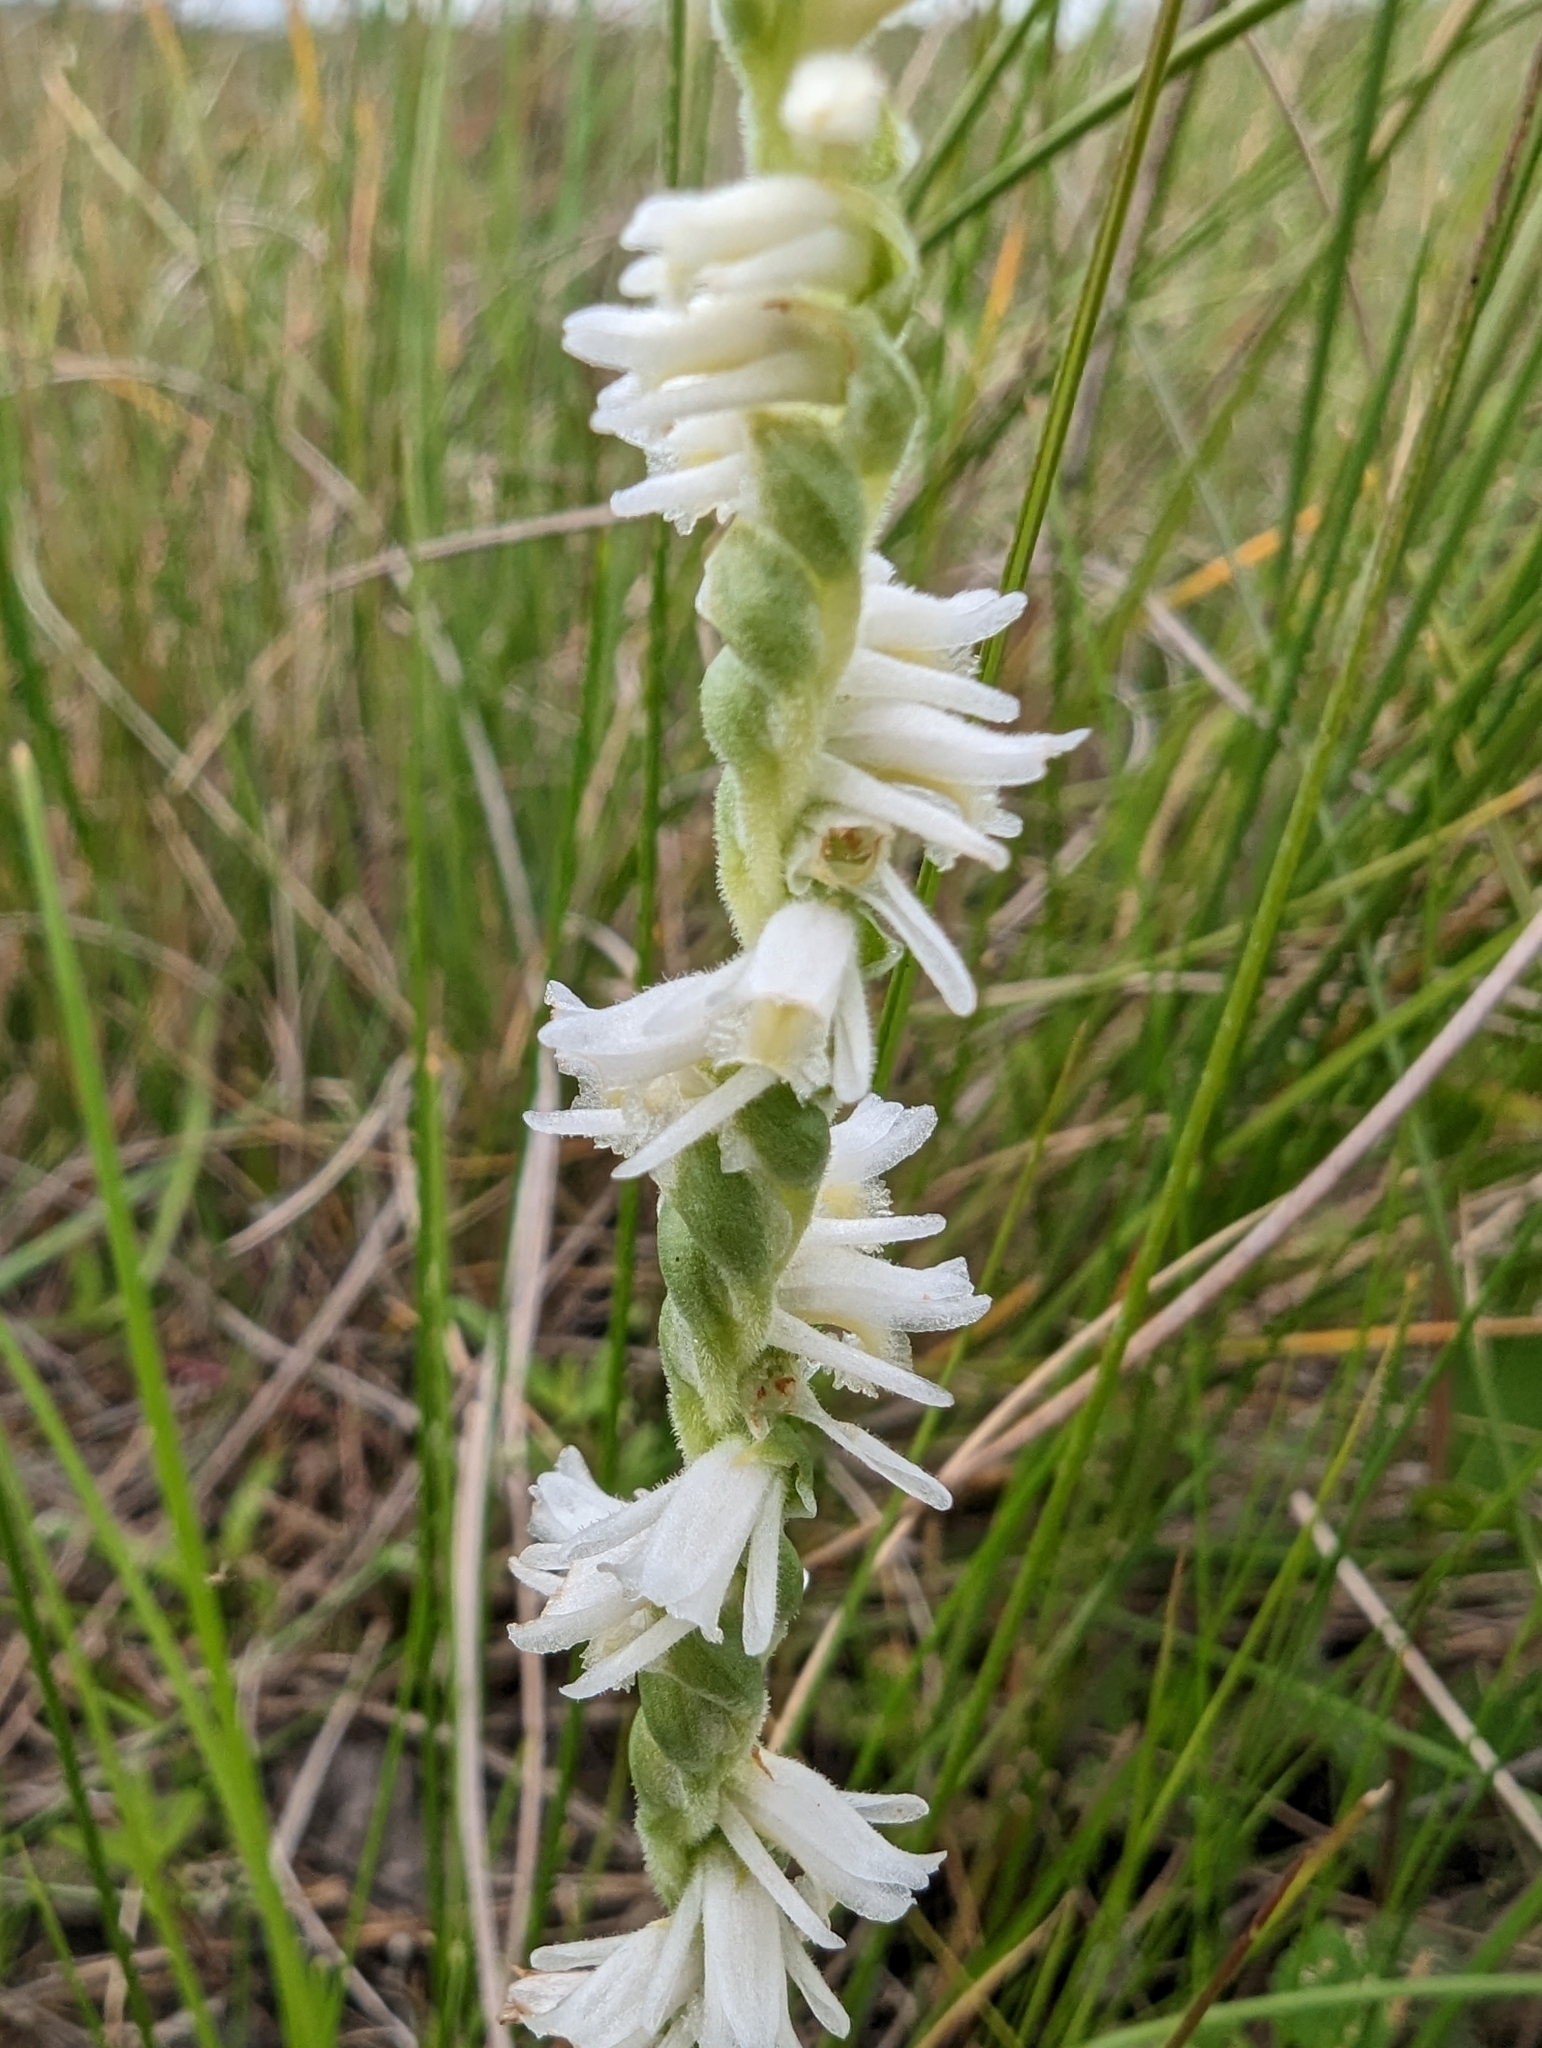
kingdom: Plantae
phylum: Tracheophyta
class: Liliopsida
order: Asparagales
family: Orchidaceae
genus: Spiranthes
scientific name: Spiranthes vernalis
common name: Spring ladies'-tresses
